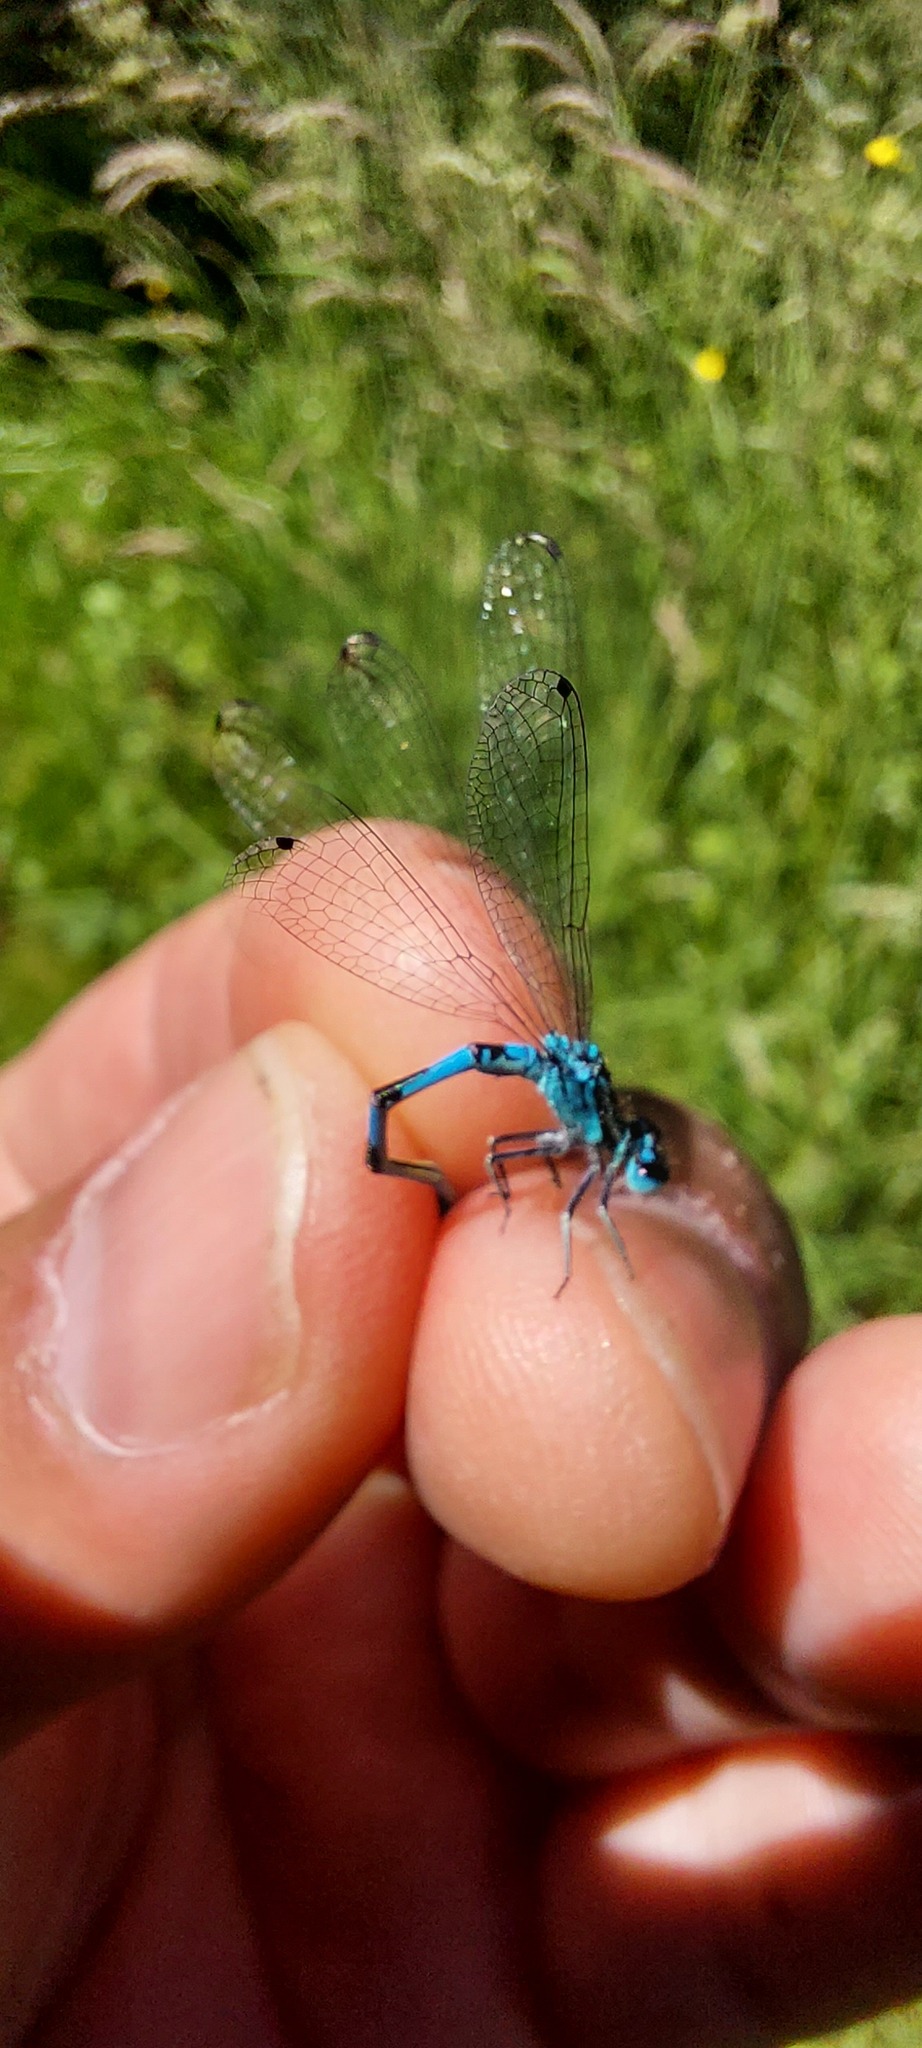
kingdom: Animalia
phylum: Arthropoda
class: Insecta
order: Odonata
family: Coenagrionidae
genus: Coenagrion
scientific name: Coenagrion mercuriale
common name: Southern damselfly
